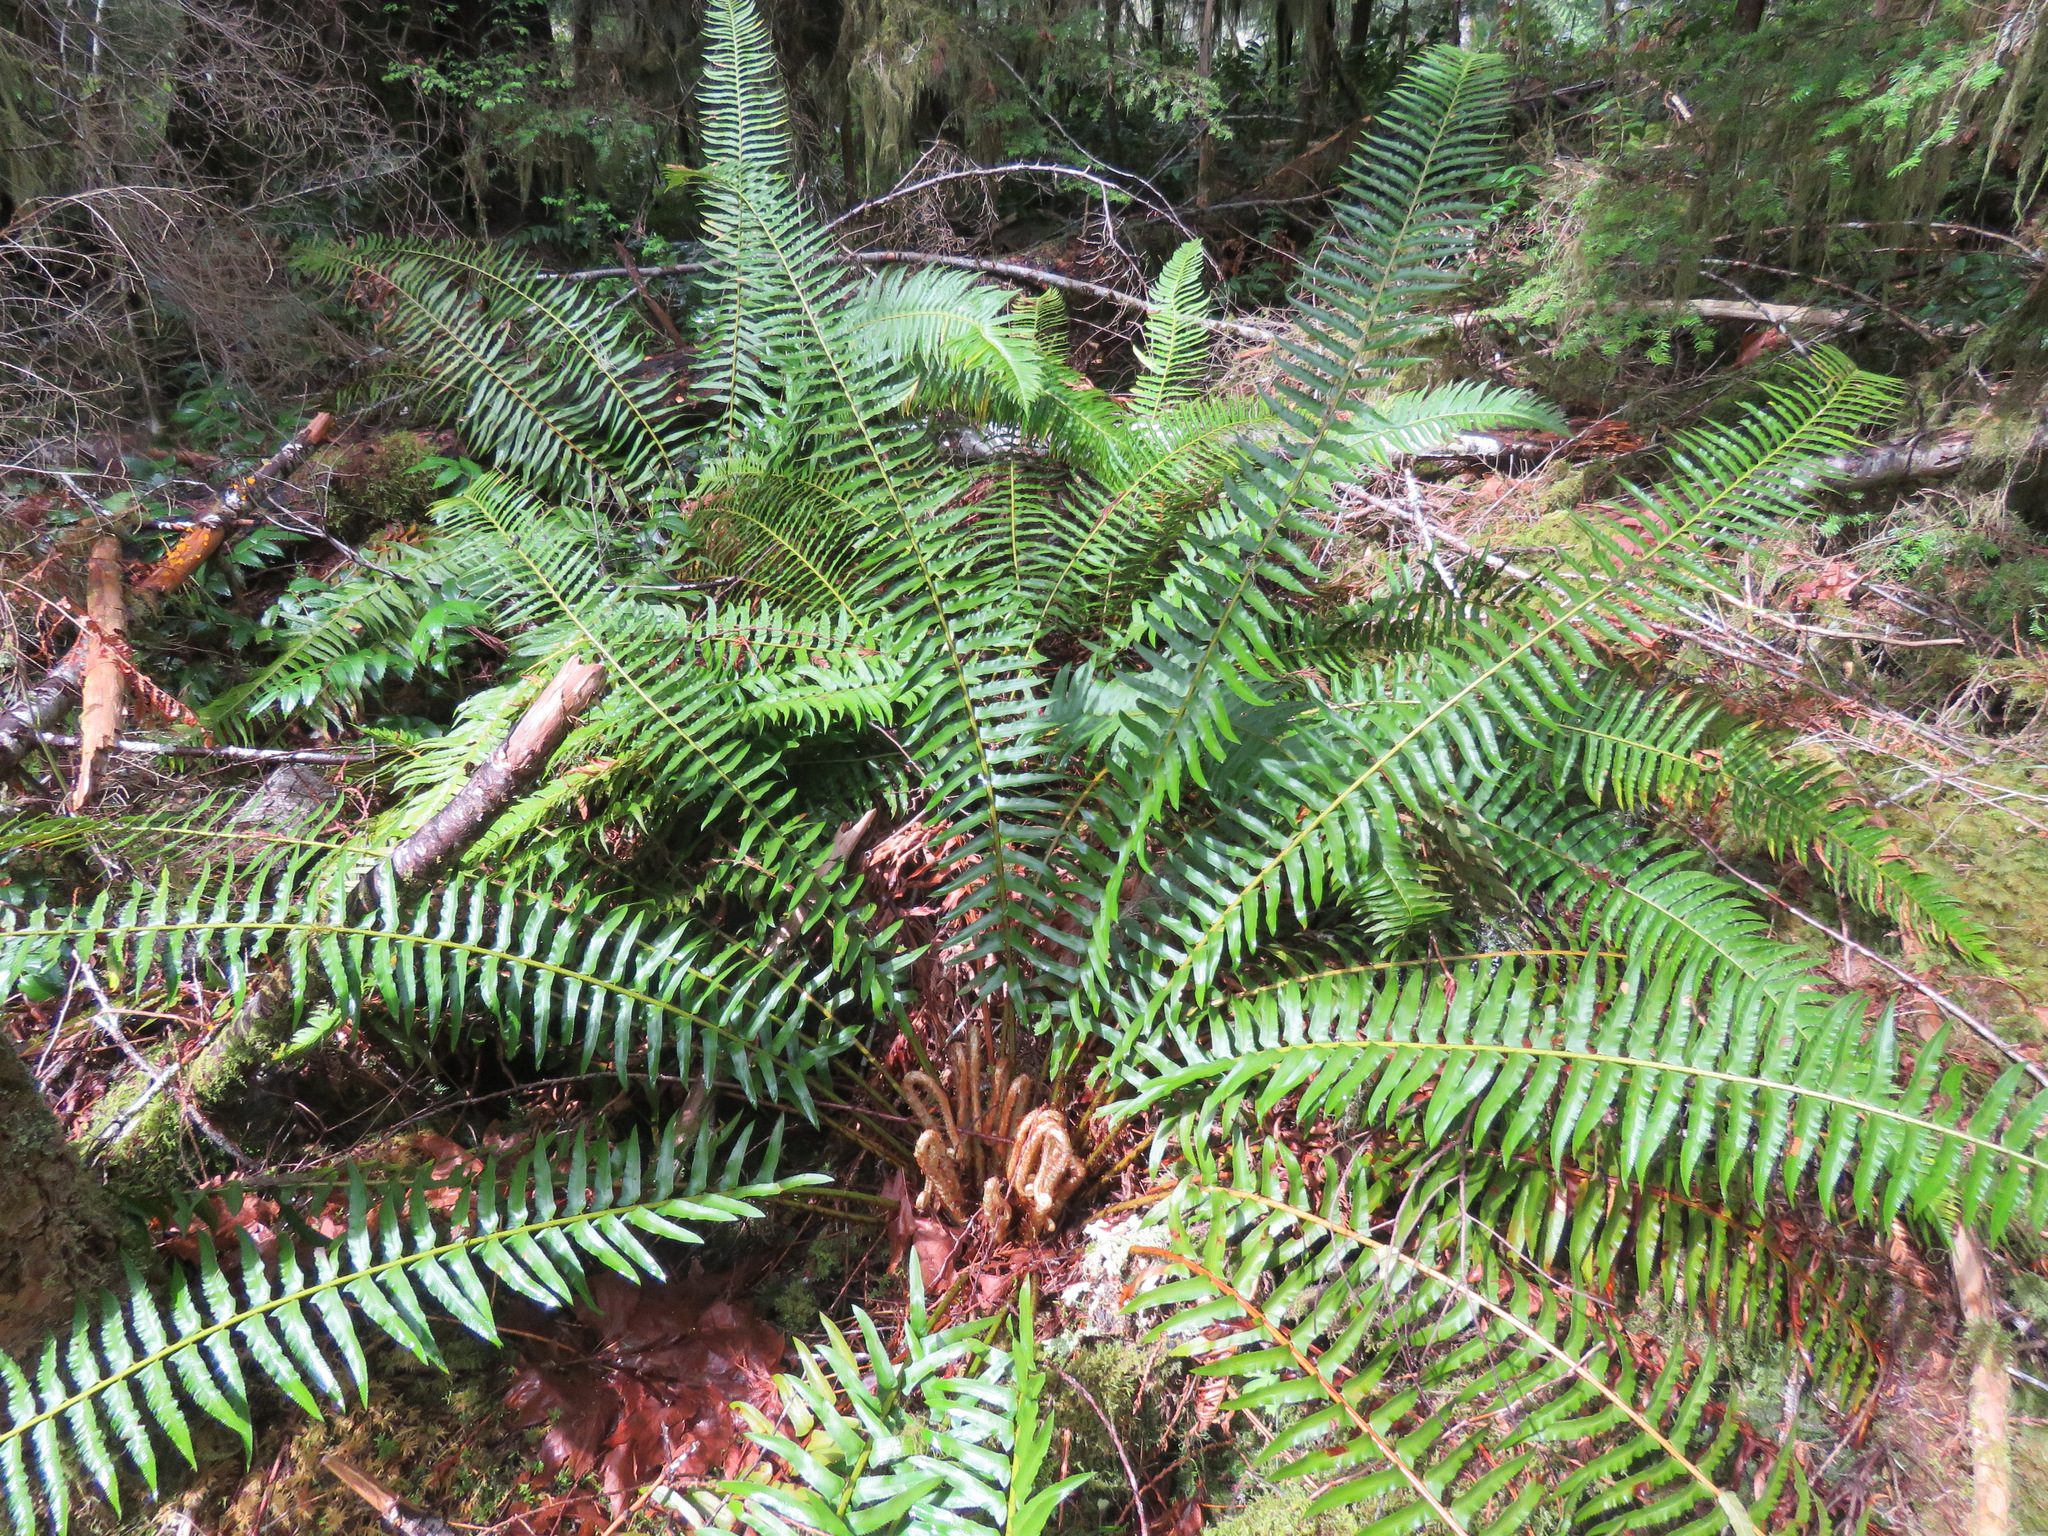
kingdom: Plantae
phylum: Tracheophyta
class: Polypodiopsida
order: Polypodiales
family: Dryopteridaceae
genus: Polystichum
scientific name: Polystichum munitum
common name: Western sword-fern
